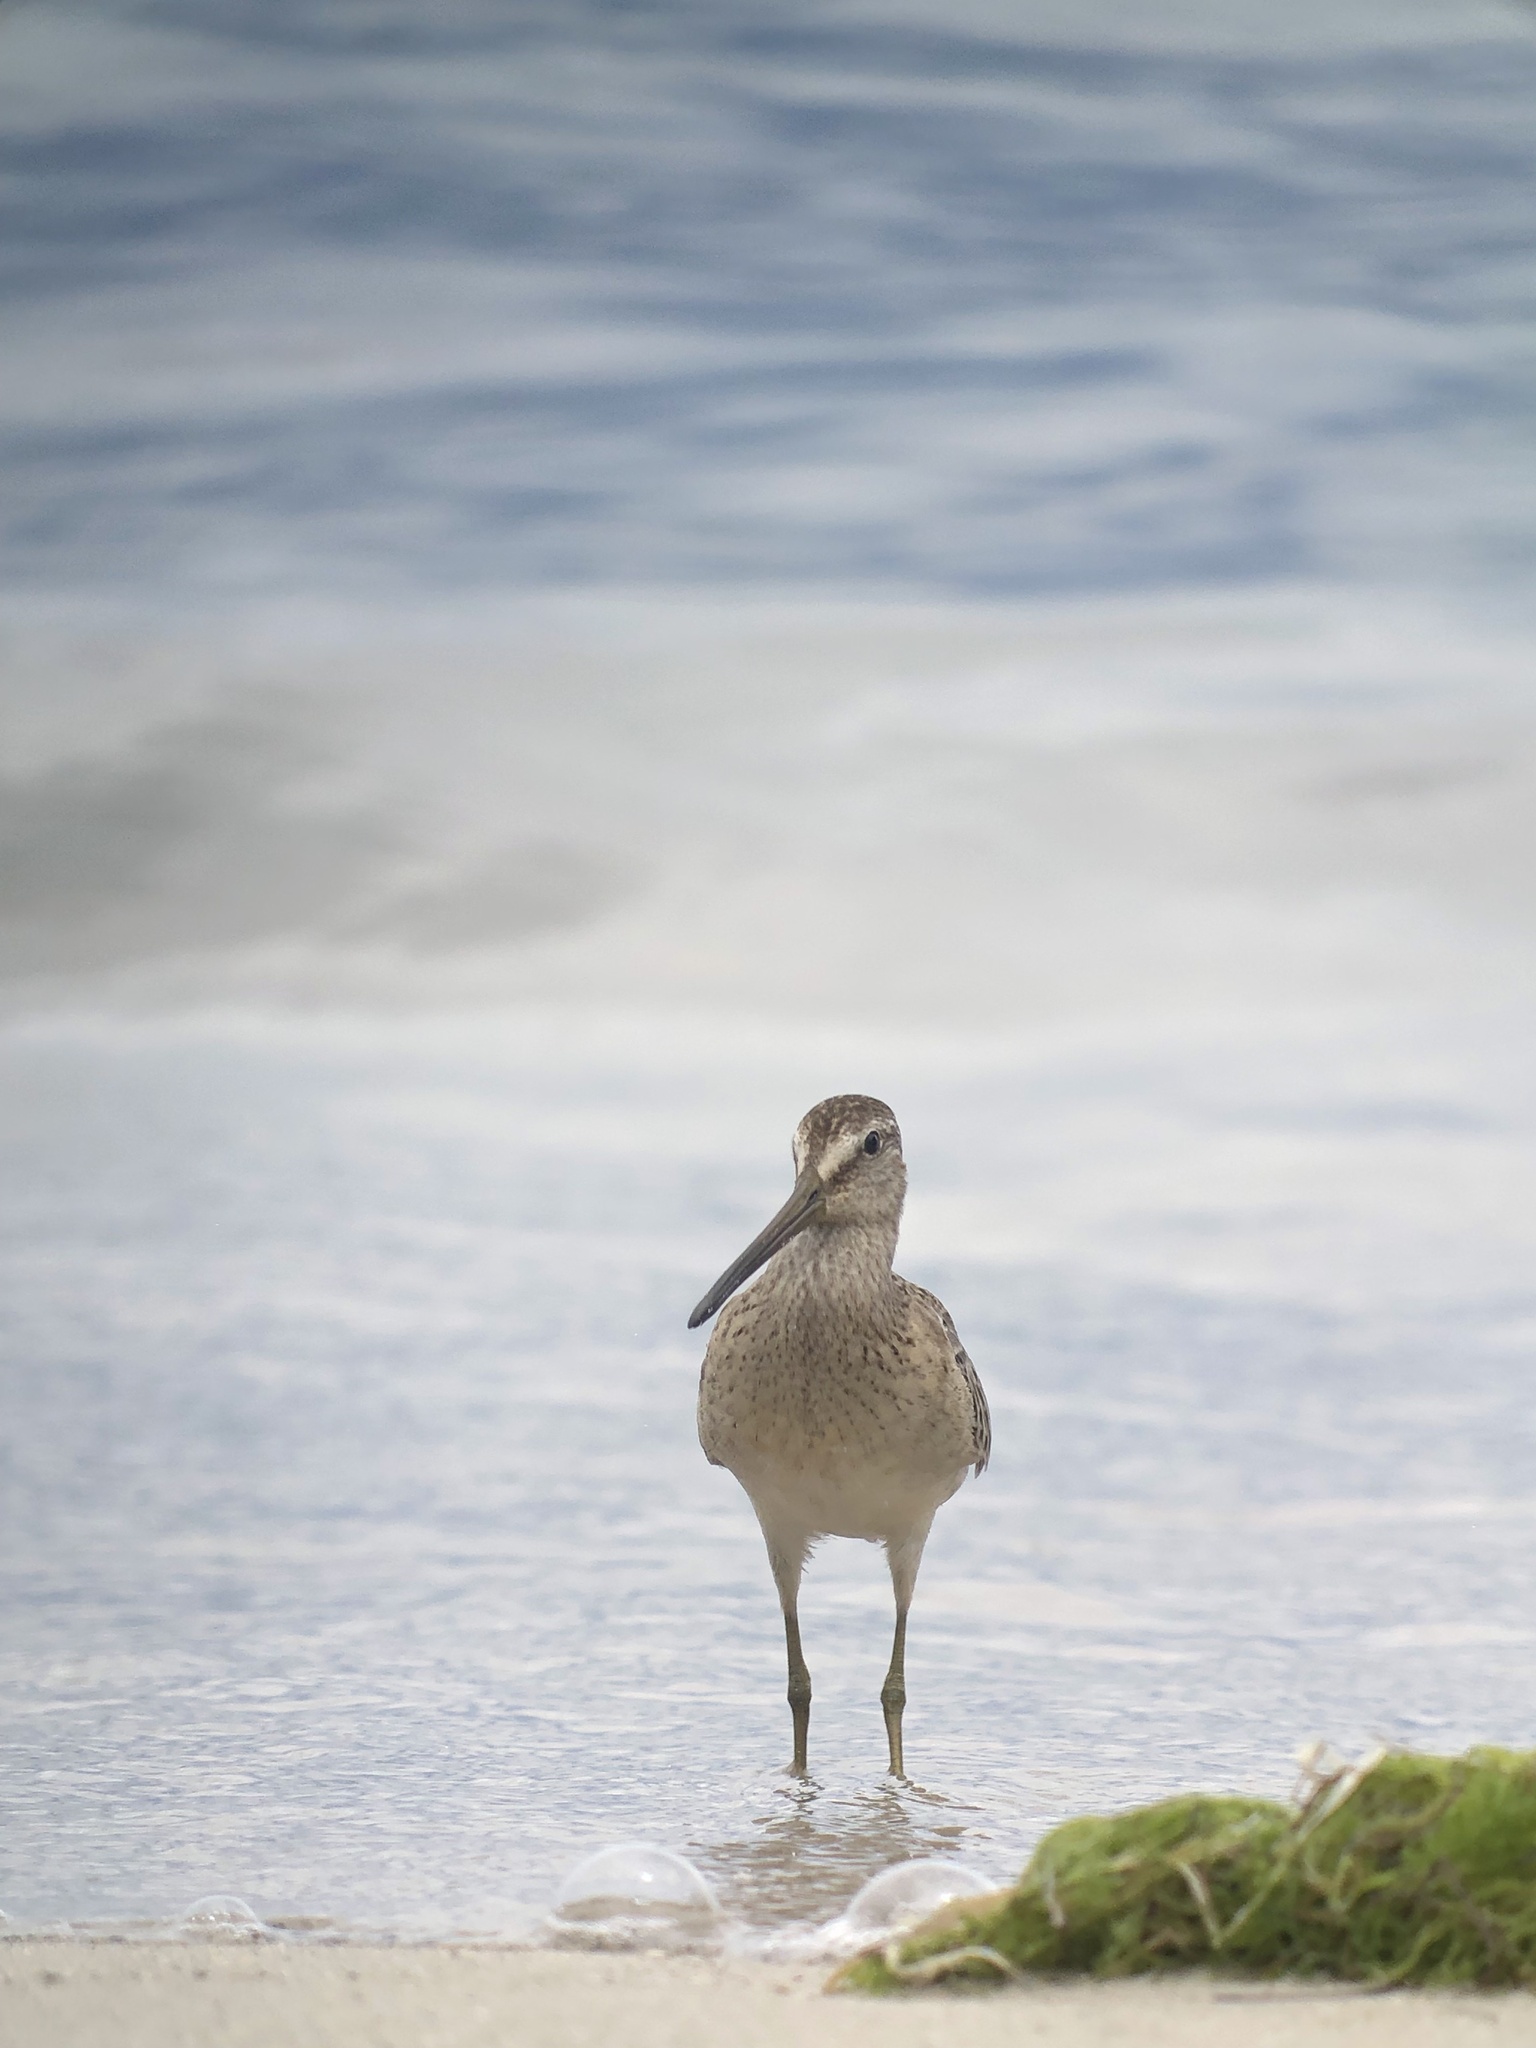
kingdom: Animalia
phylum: Chordata
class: Aves
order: Charadriiformes
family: Scolopacidae
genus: Limnodromus
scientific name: Limnodromus griseus
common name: Short-billed dowitcher
